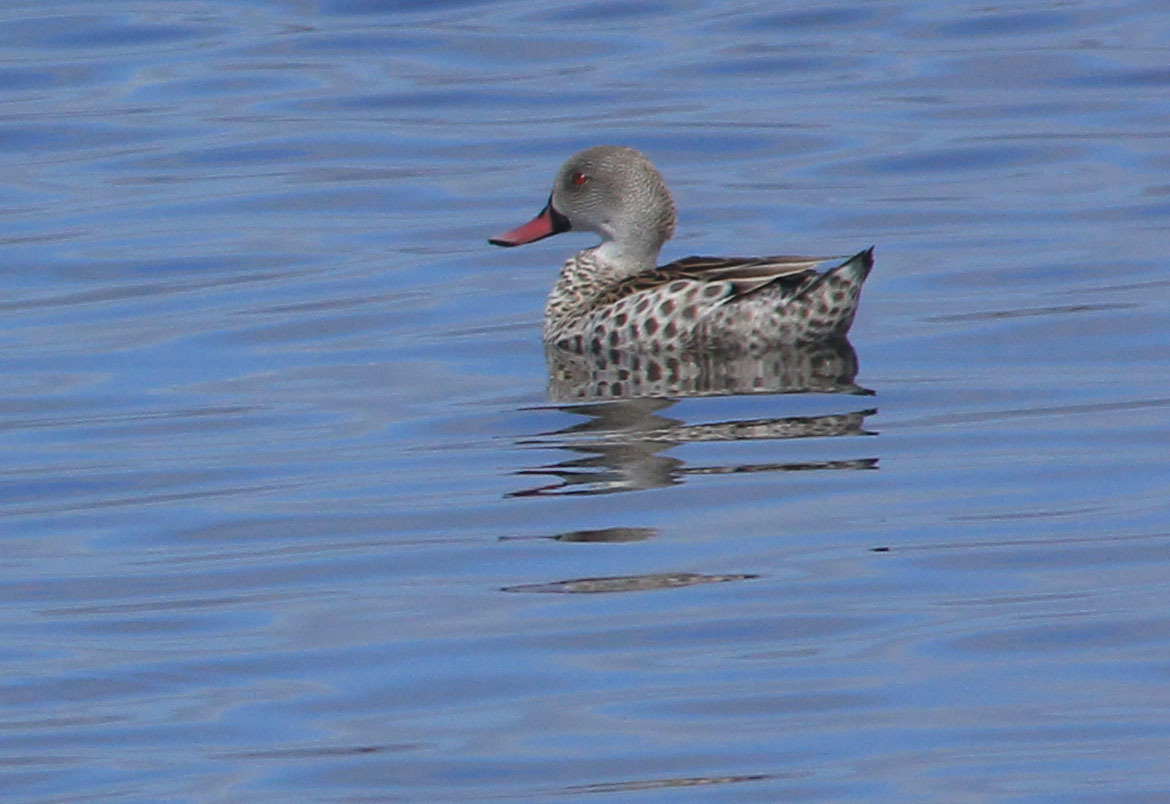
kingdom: Animalia
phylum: Chordata
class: Aves
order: Anseriformes
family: Anatidae
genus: Anas
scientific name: Anas capensis
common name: Cape teal
